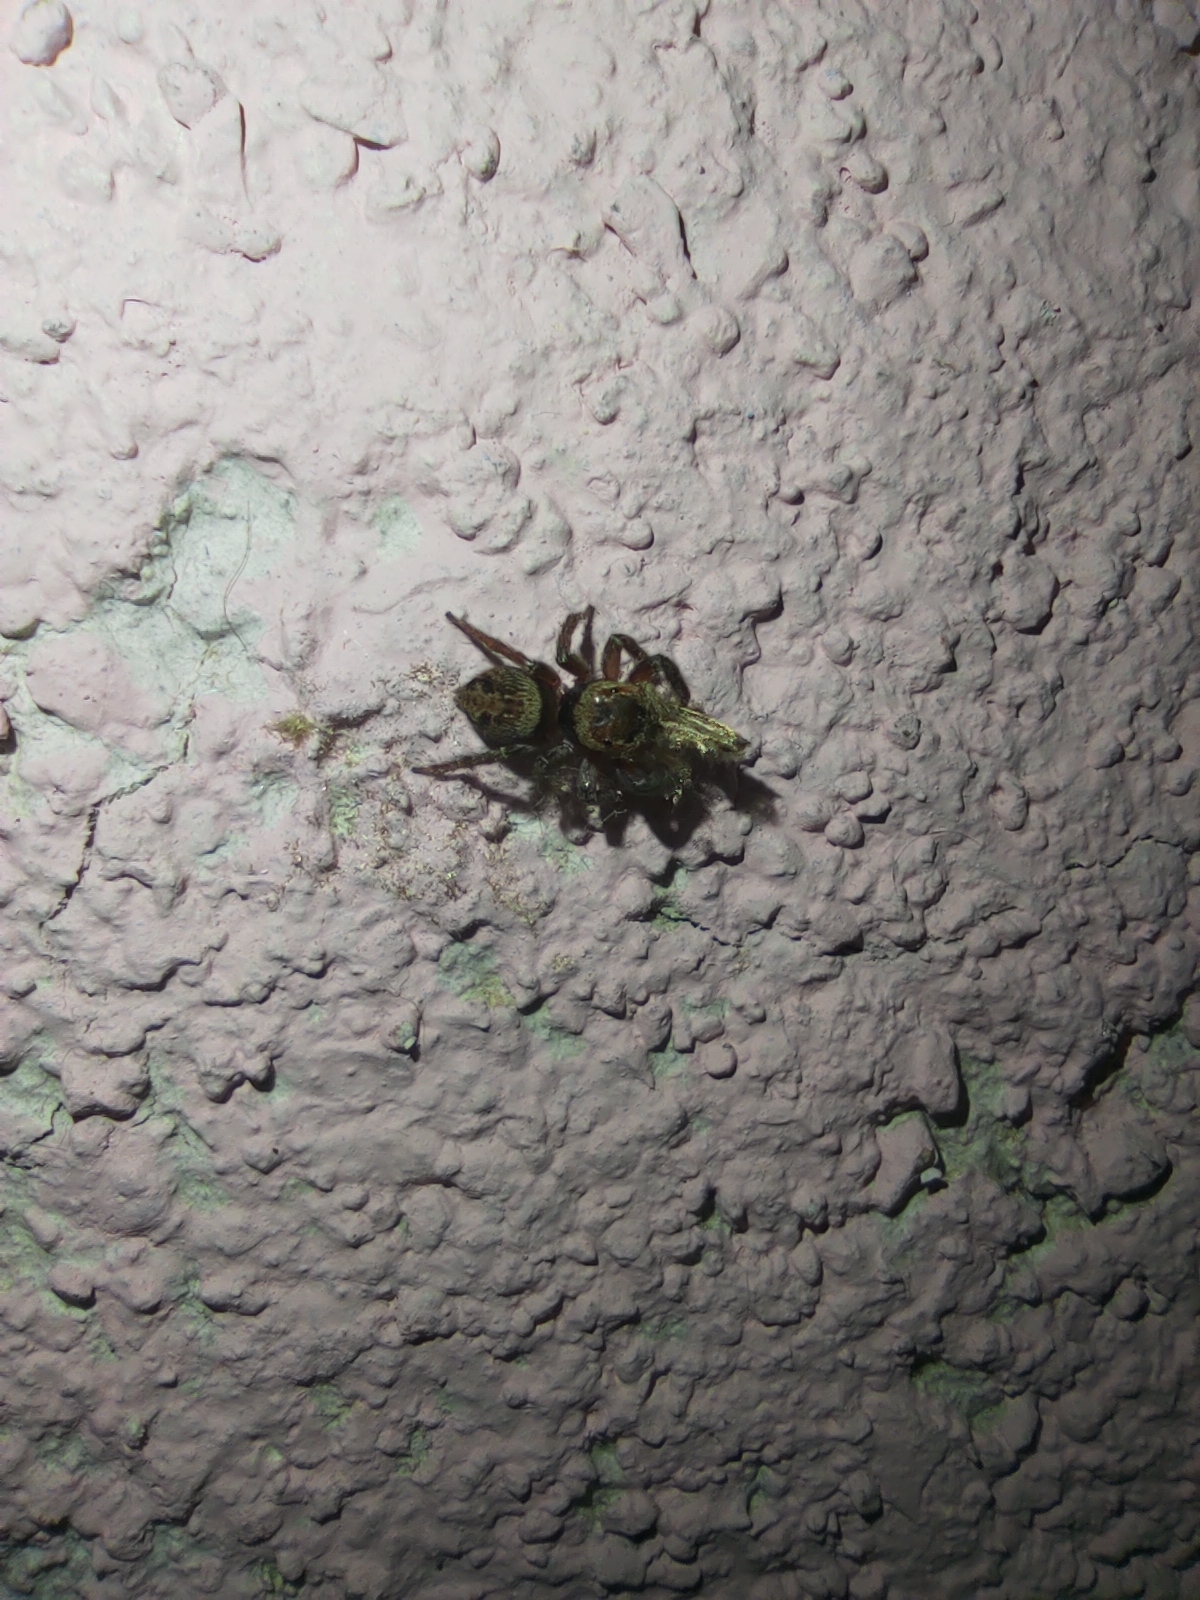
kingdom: Animalia
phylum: Arthropoda
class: Arachnida
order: Araneae
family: Salticidae
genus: Hasarius
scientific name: Hasarius adansoni
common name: Jumping spider
